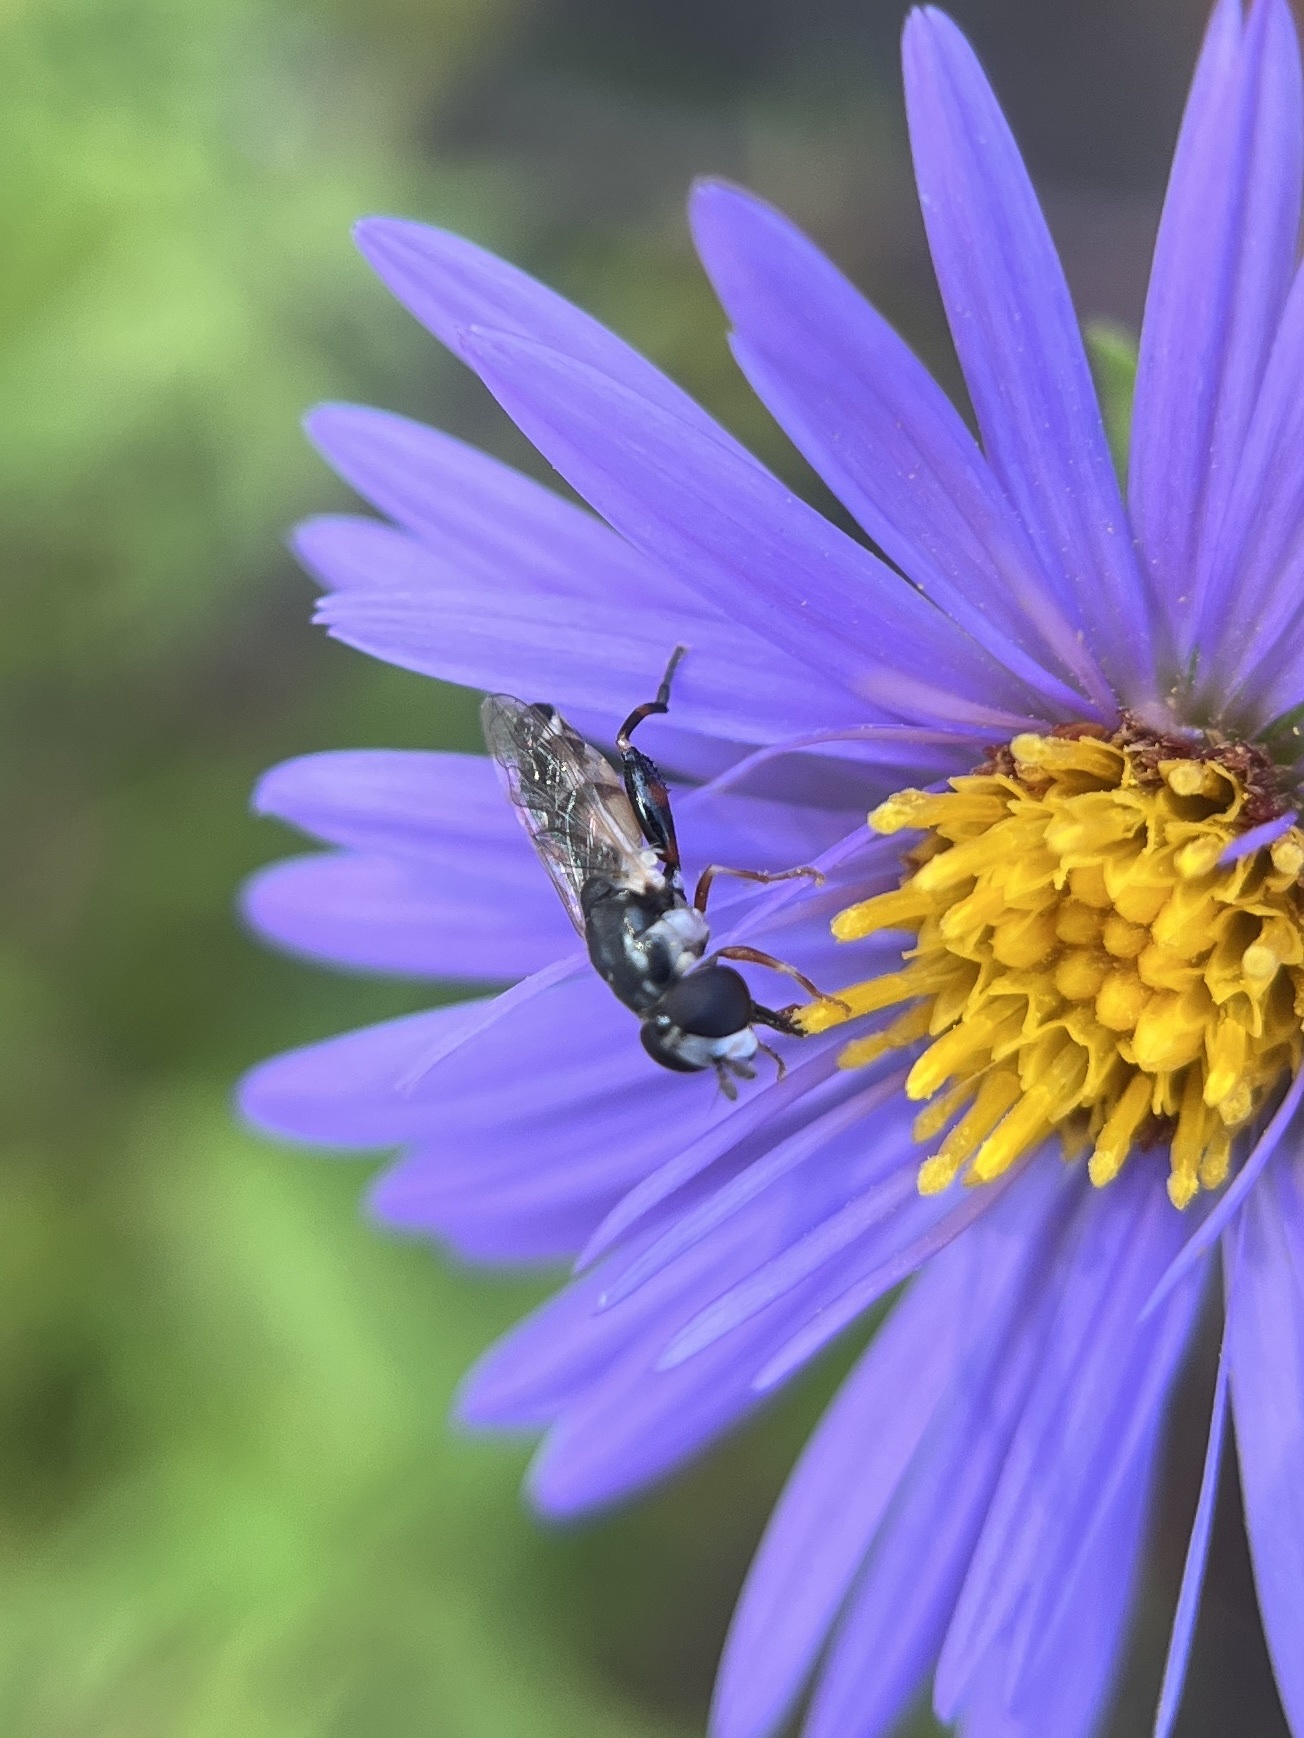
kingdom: Animalia
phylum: Arthropoda
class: Insecta
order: Diptera
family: Syrphidae
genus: Syritta
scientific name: Syritta flaviventris
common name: Syrphid fly
